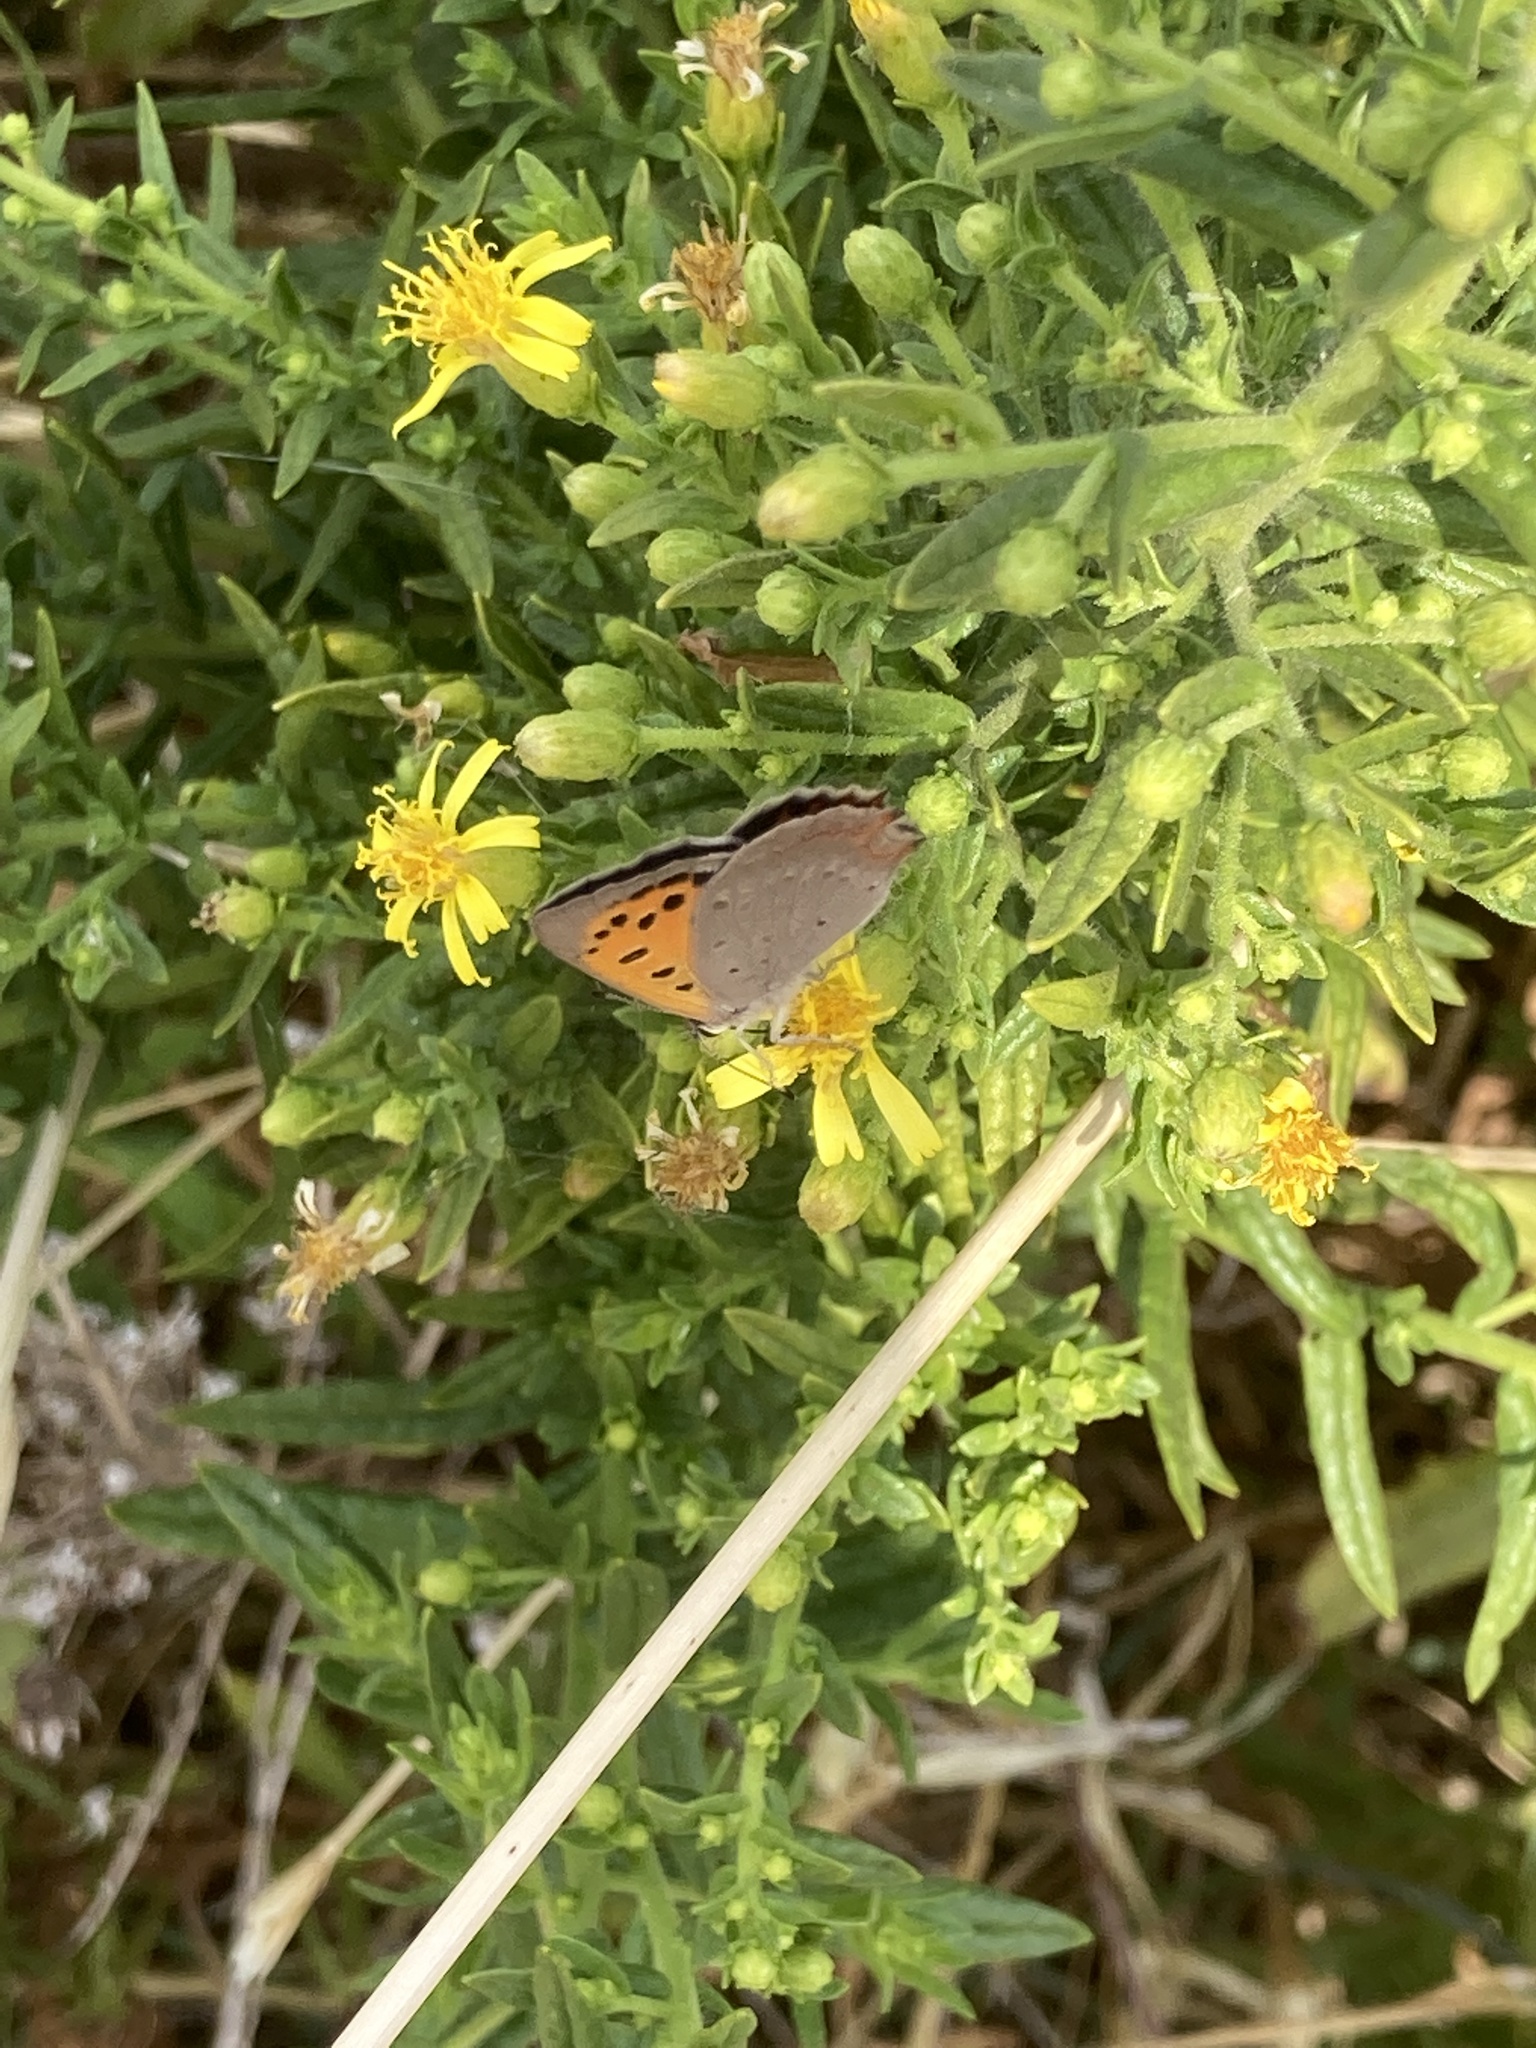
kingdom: Animalia
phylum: Arthropoda
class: Insecta
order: Lepidoptera
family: Lycaenidae
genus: Lycaena
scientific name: Lycaena phlaeas
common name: Small copper
